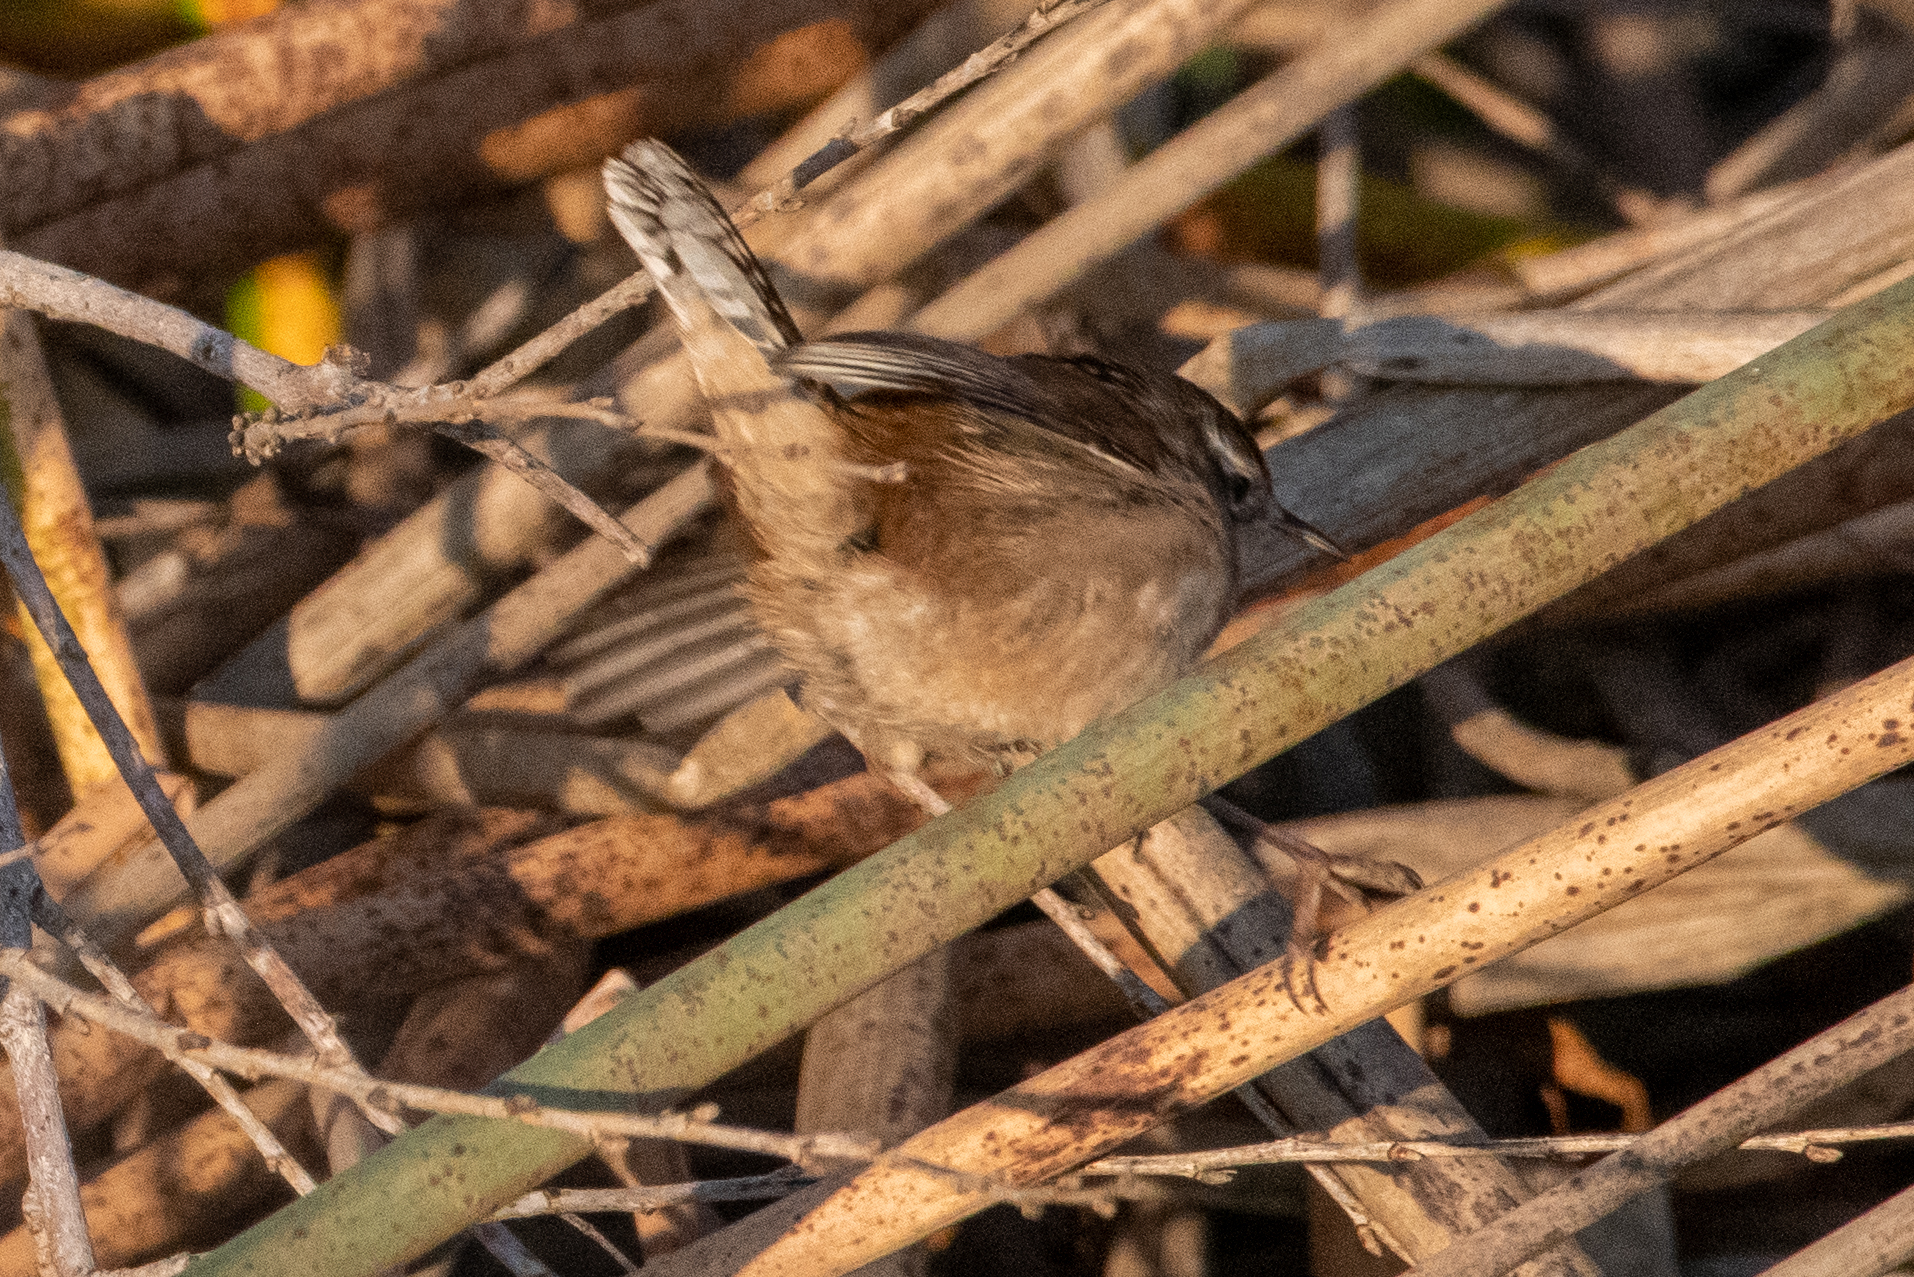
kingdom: Animalia
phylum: Chordata
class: Aves
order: Passeriformes
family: Troglodytidae
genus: Cistothorus
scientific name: Cistothorus palustris
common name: Marsh wren
